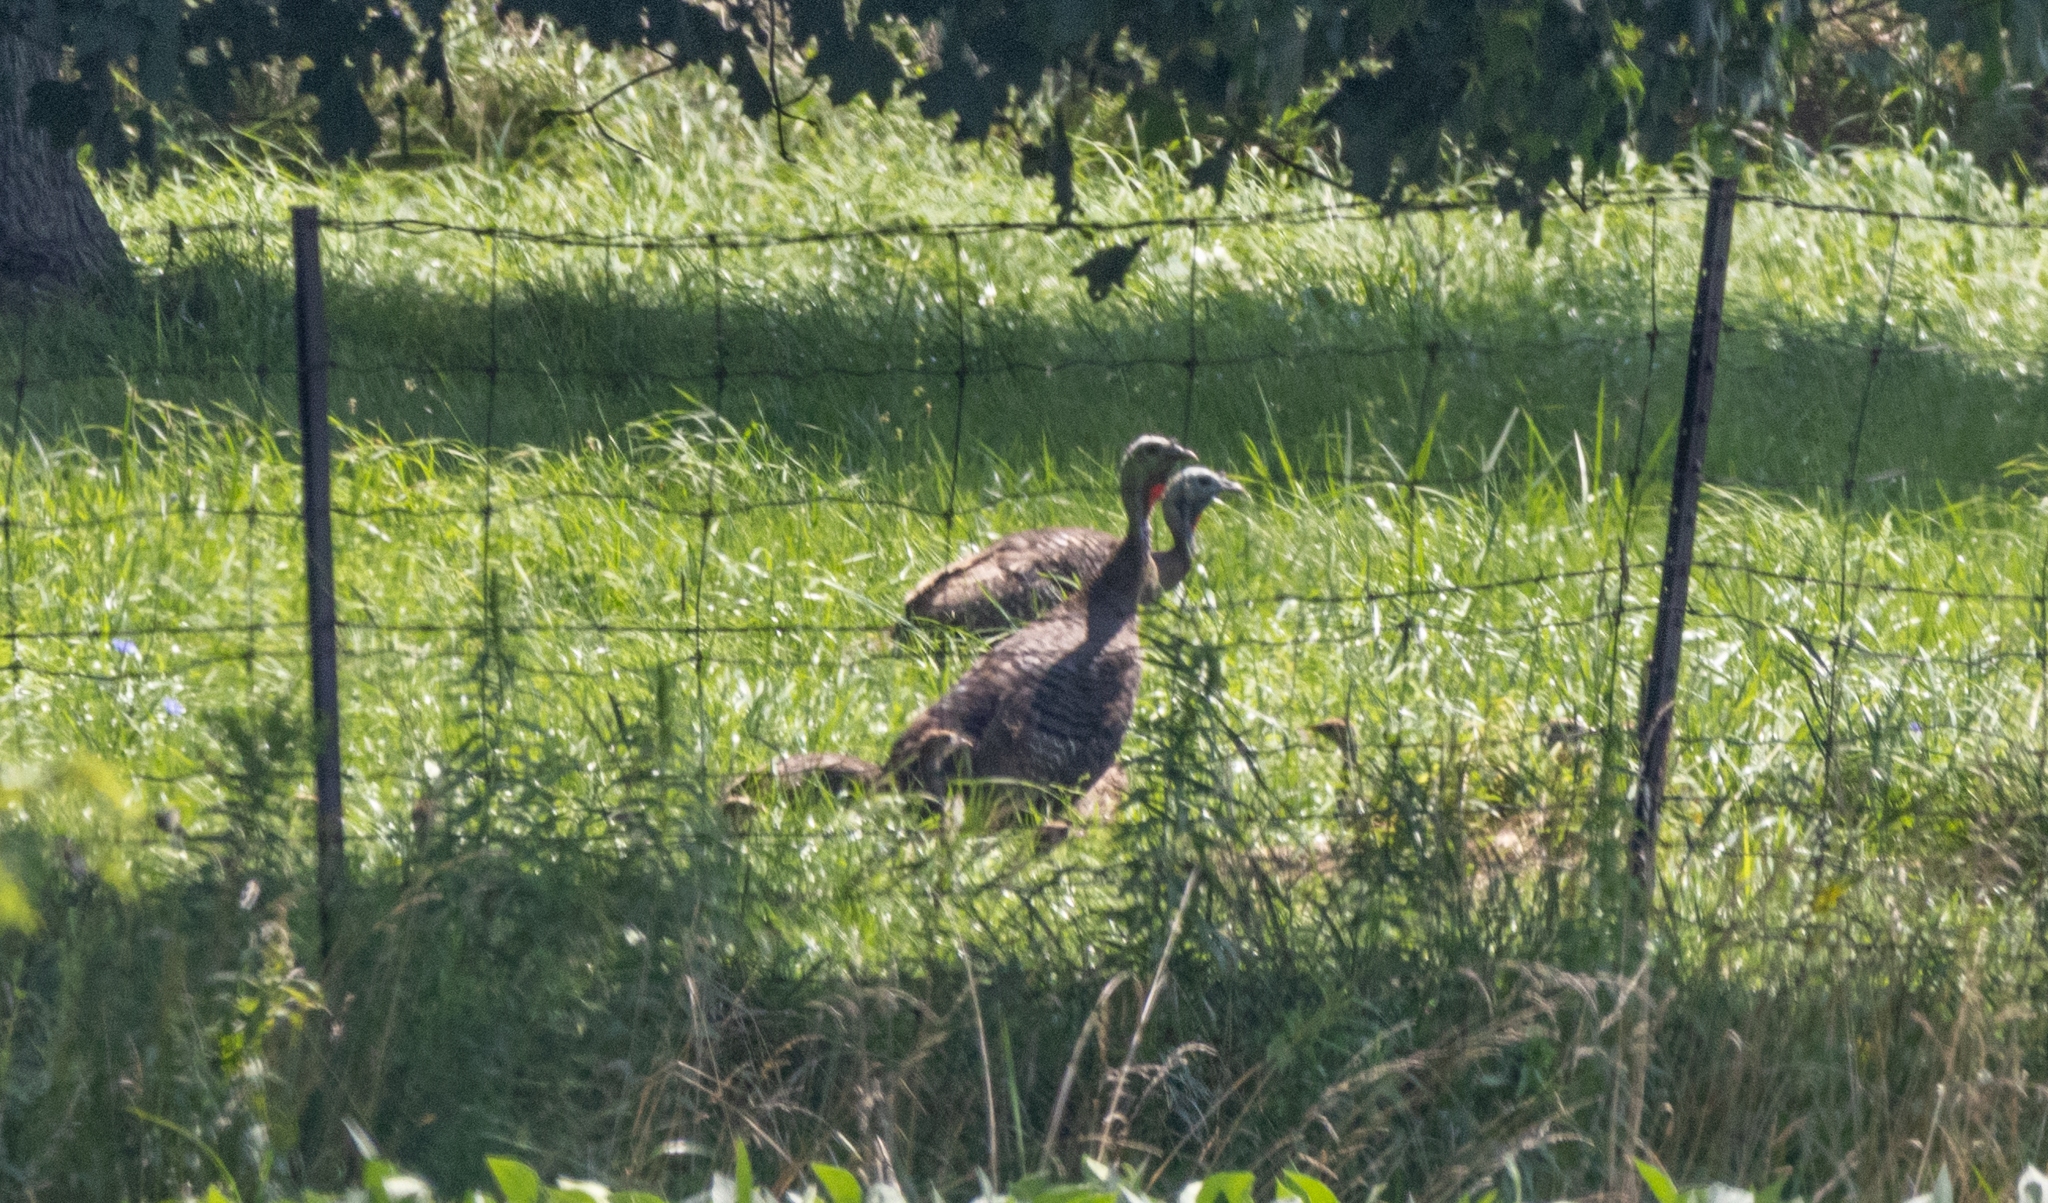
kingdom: Animalia
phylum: Chordata
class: Aves
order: Galliformes
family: Phasianidae
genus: Meleagris
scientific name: Meleagris gallopavo
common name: Wild turkey
